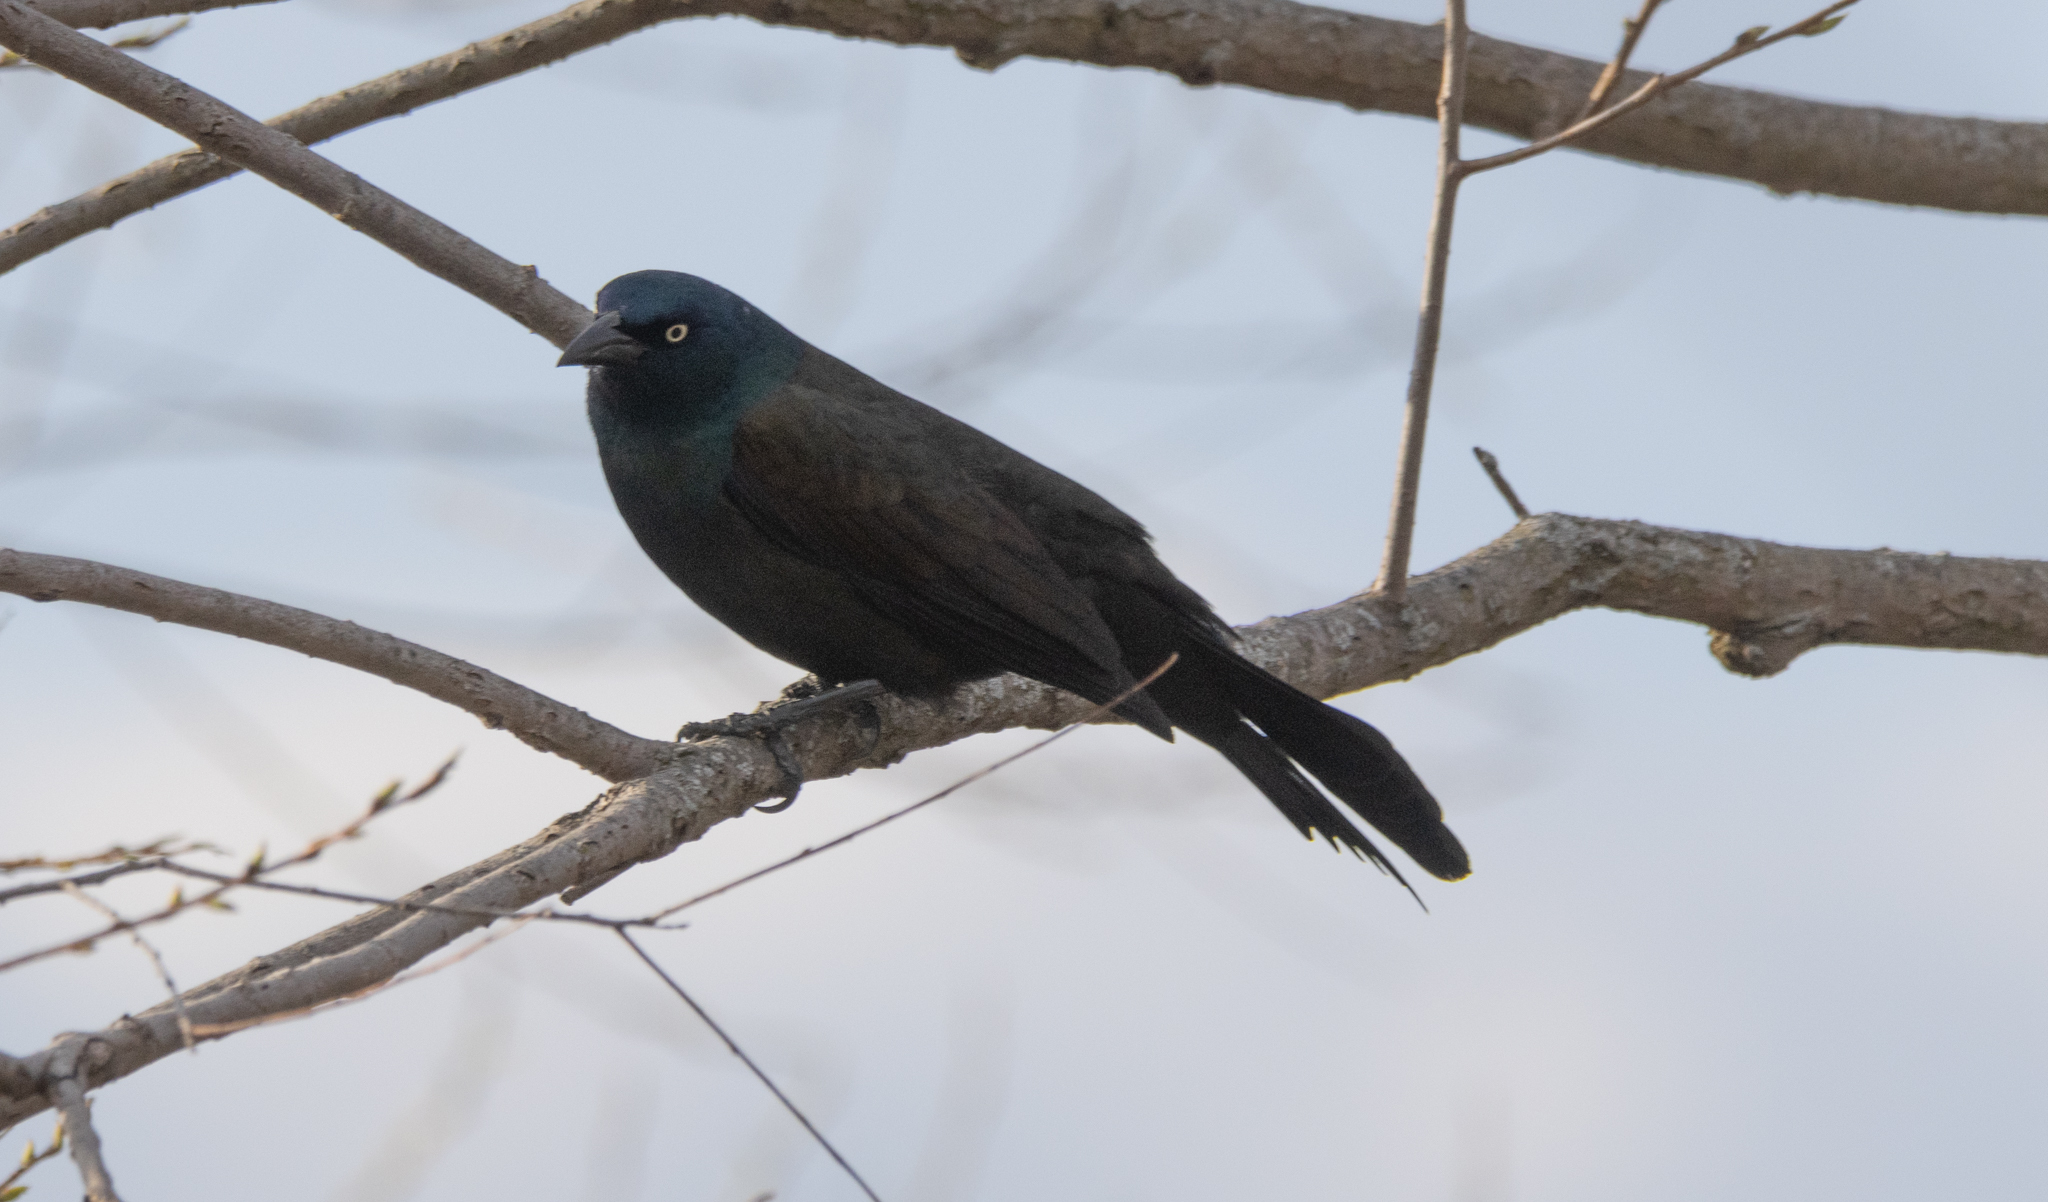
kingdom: Animalia
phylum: Chordata
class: Aves
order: Passeriformes
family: Icteridae
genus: Quiscalus
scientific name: Quiscalus quiscula
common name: Common grackle
